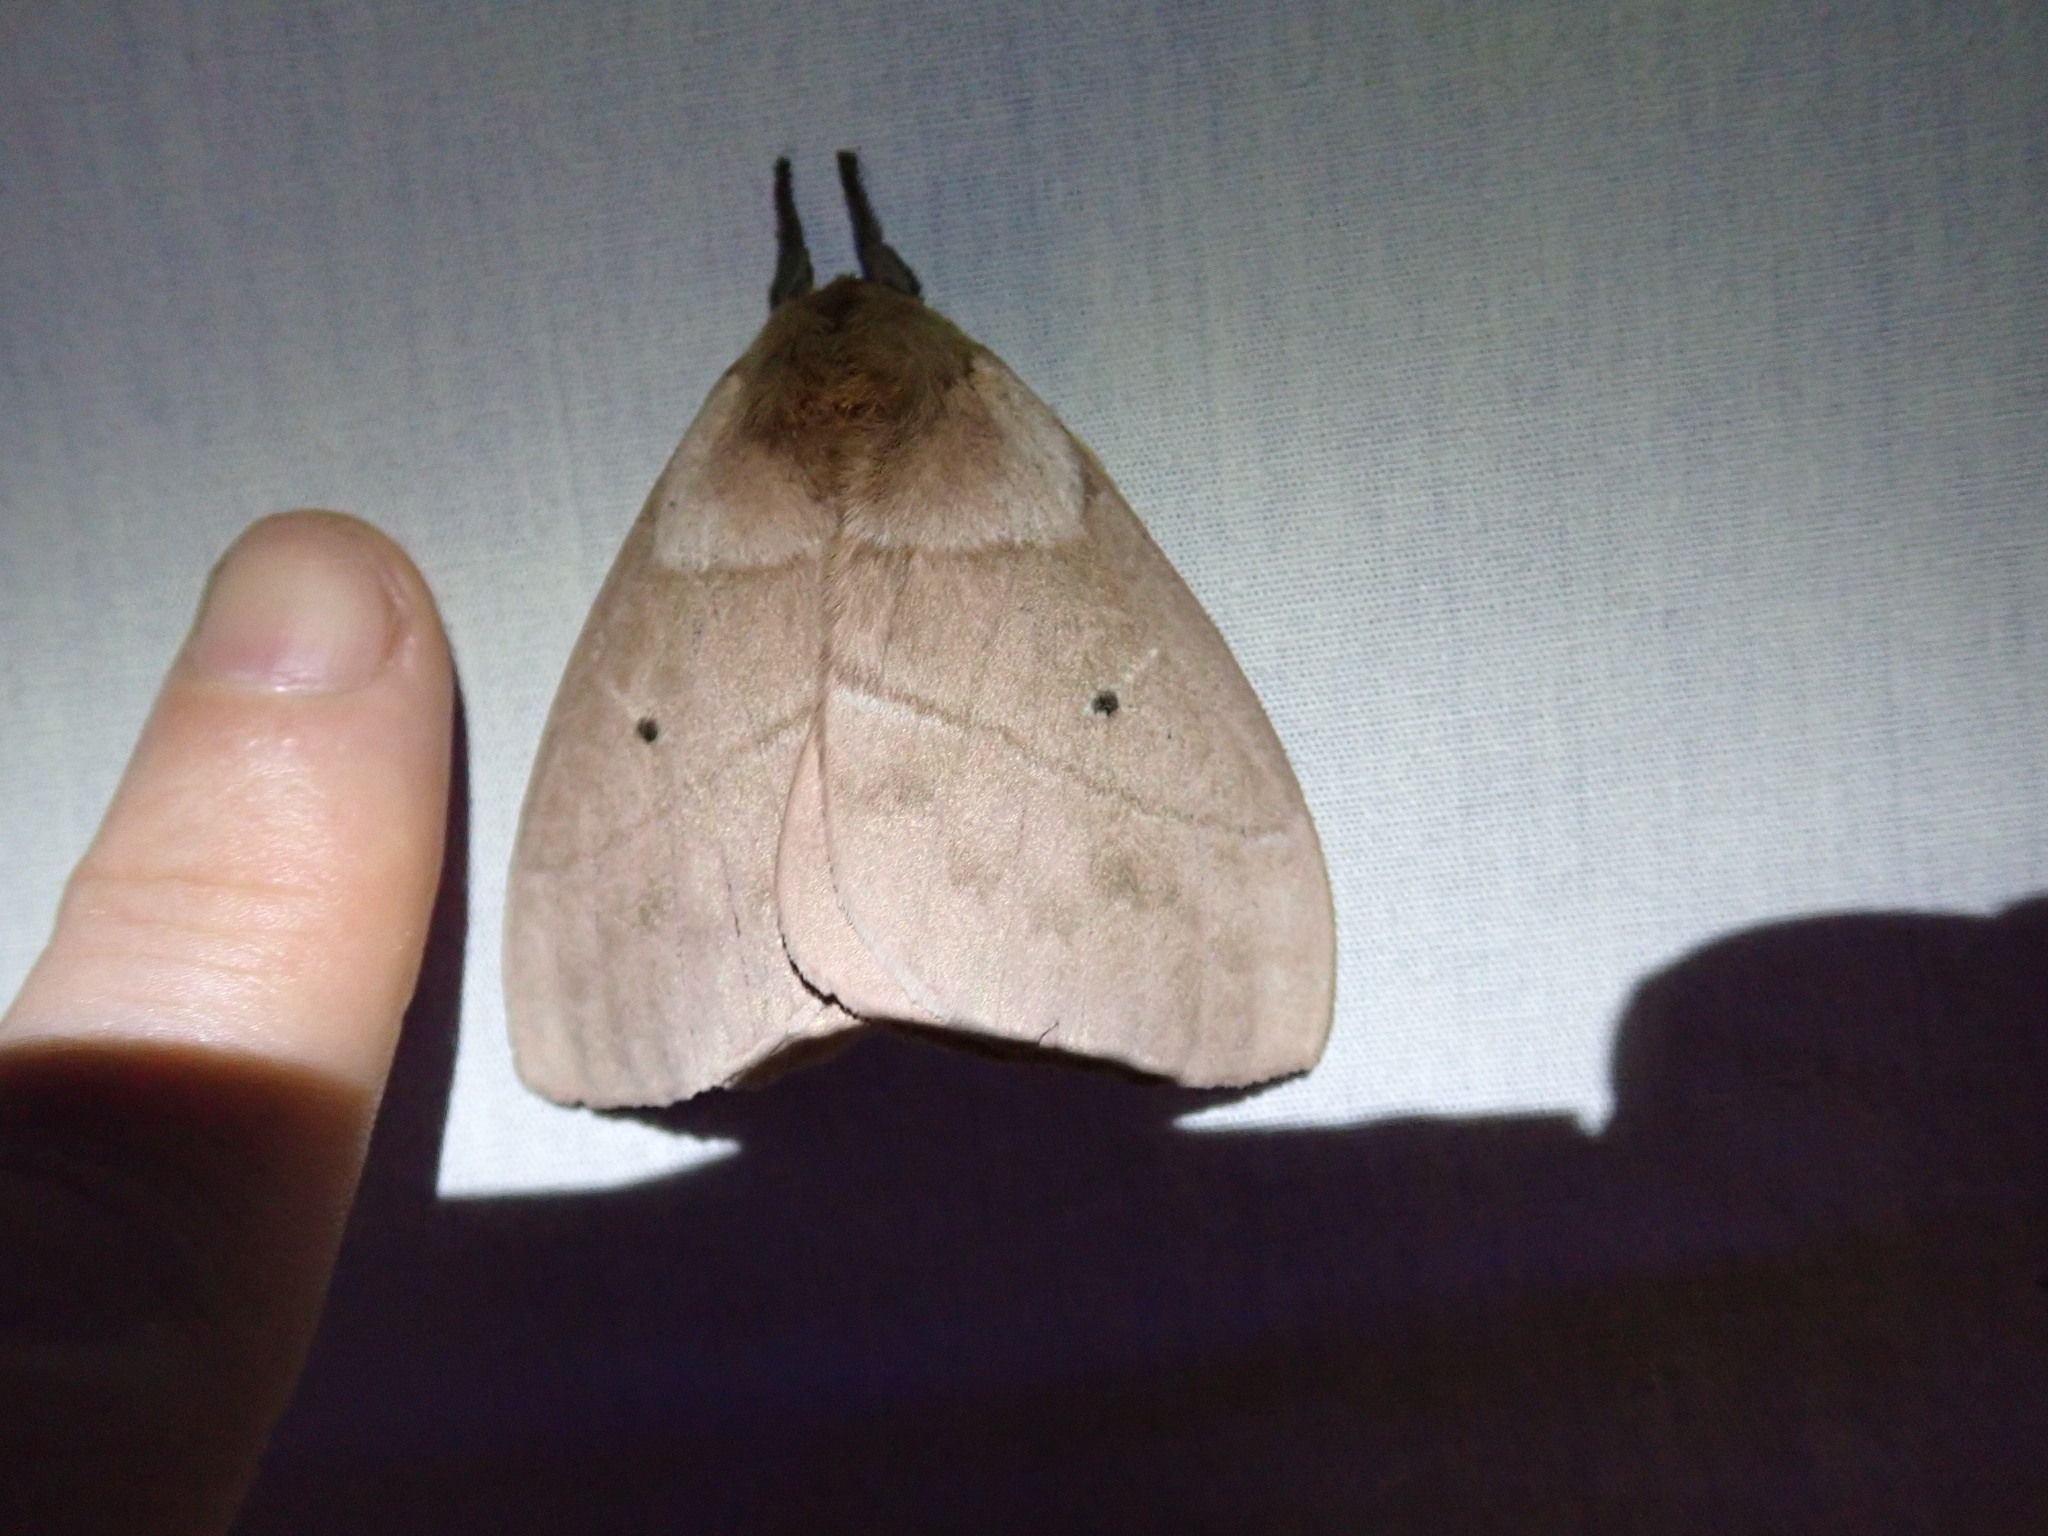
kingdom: Animalia
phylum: Arthropoda
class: Insecta
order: Lepidoptera
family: Saturniidae
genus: Periphoba
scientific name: Periphoba arcaei
